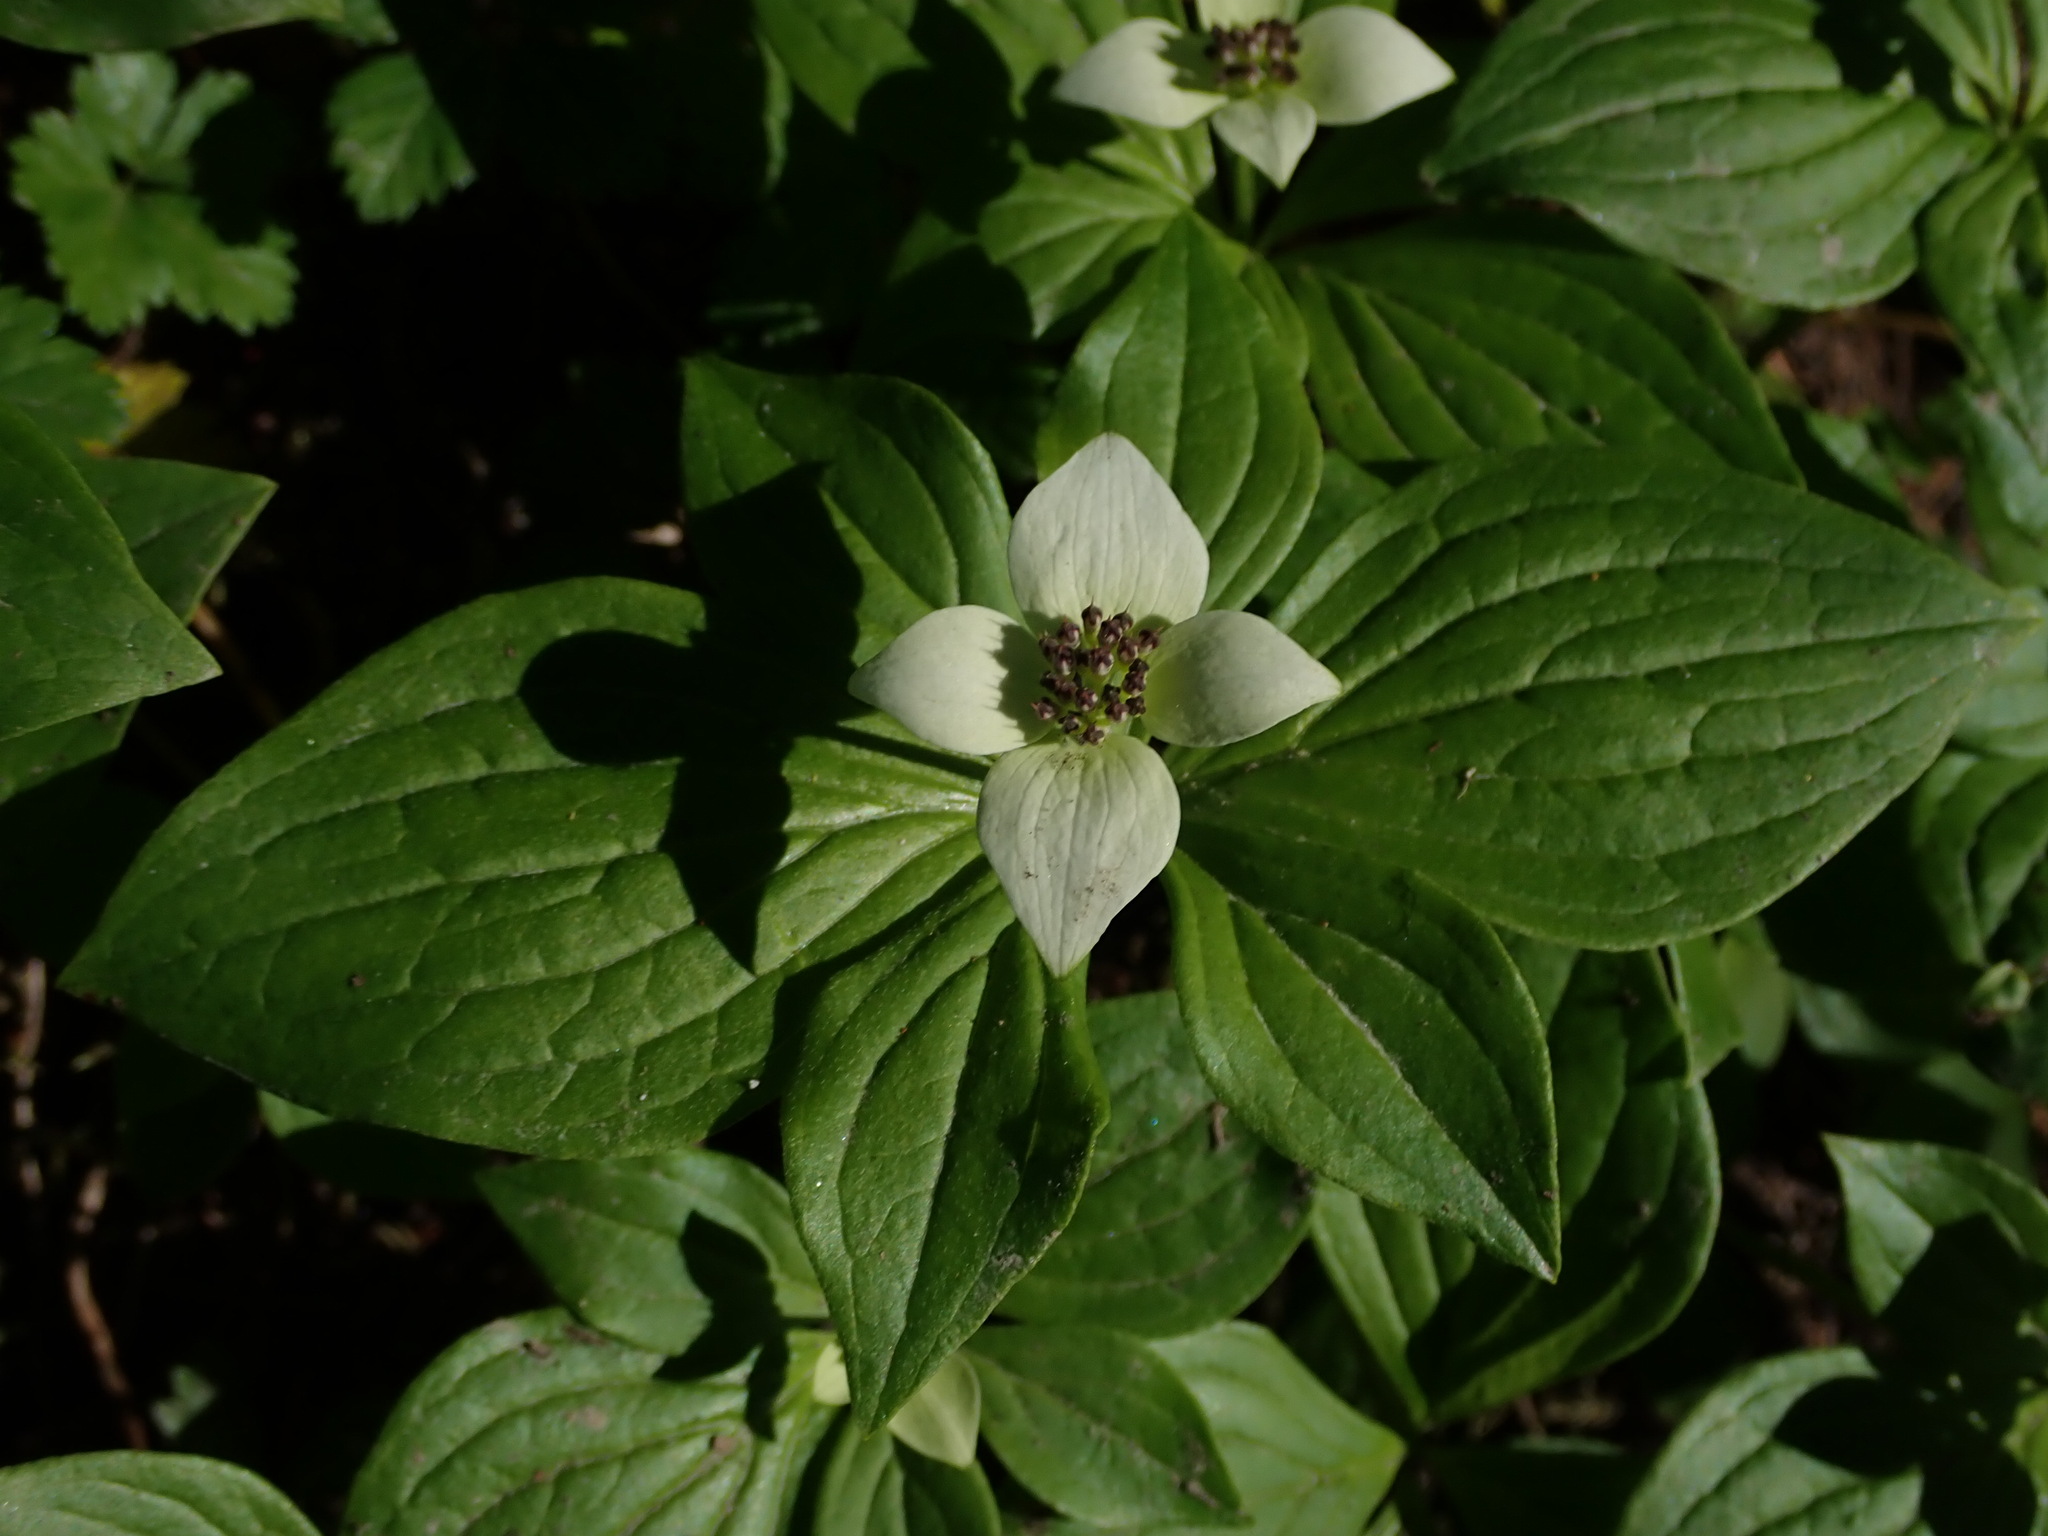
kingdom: Plantae
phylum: Tracheophyta
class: Magnoliopsida
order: Cornales
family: Cornaceae
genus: Cornus
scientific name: Cornus unalaschkensis
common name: Alaska bunchberry
